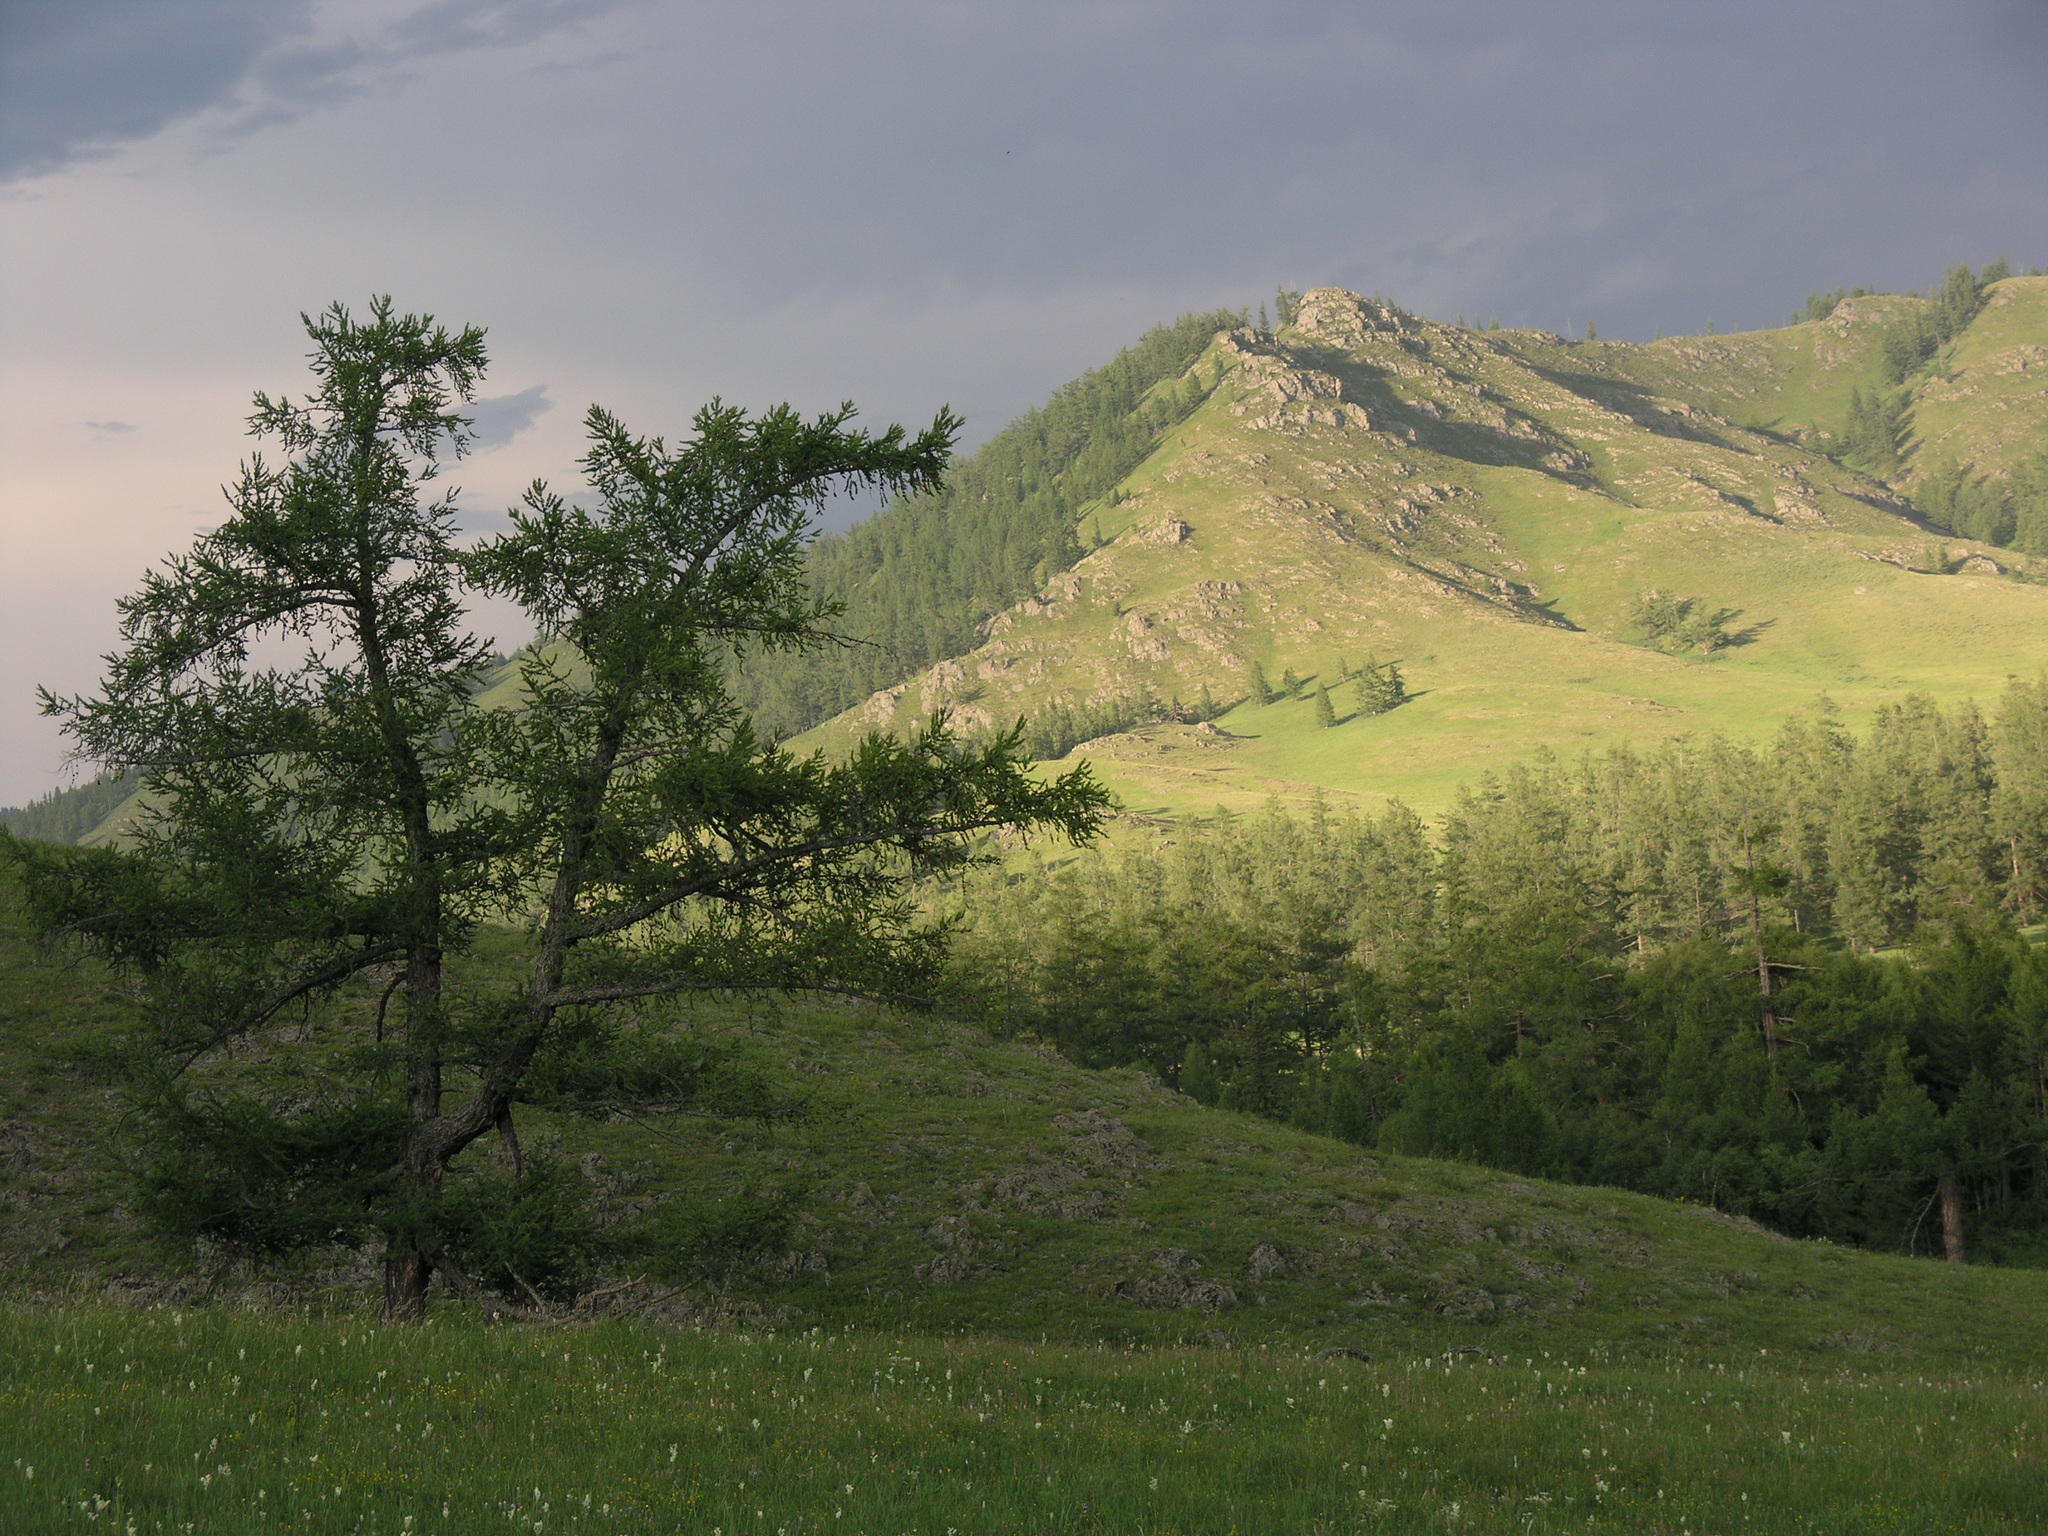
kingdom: Plantae
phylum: Tracheophyta
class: Pinopsida
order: Pinales
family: Pinaceae
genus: Larix
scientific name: Larix sibirica
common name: Siberian larch
